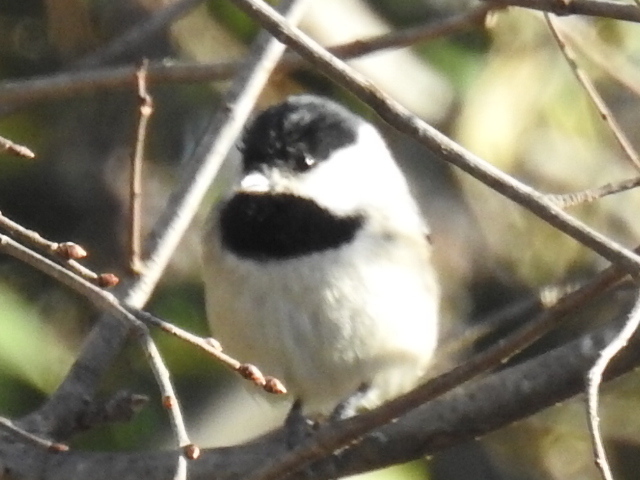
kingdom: Animalia
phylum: Chordata
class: Aves
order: Passeriformes
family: Paridae
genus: Poecile
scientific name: Poecile carolinensis
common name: Carolina chickadee
